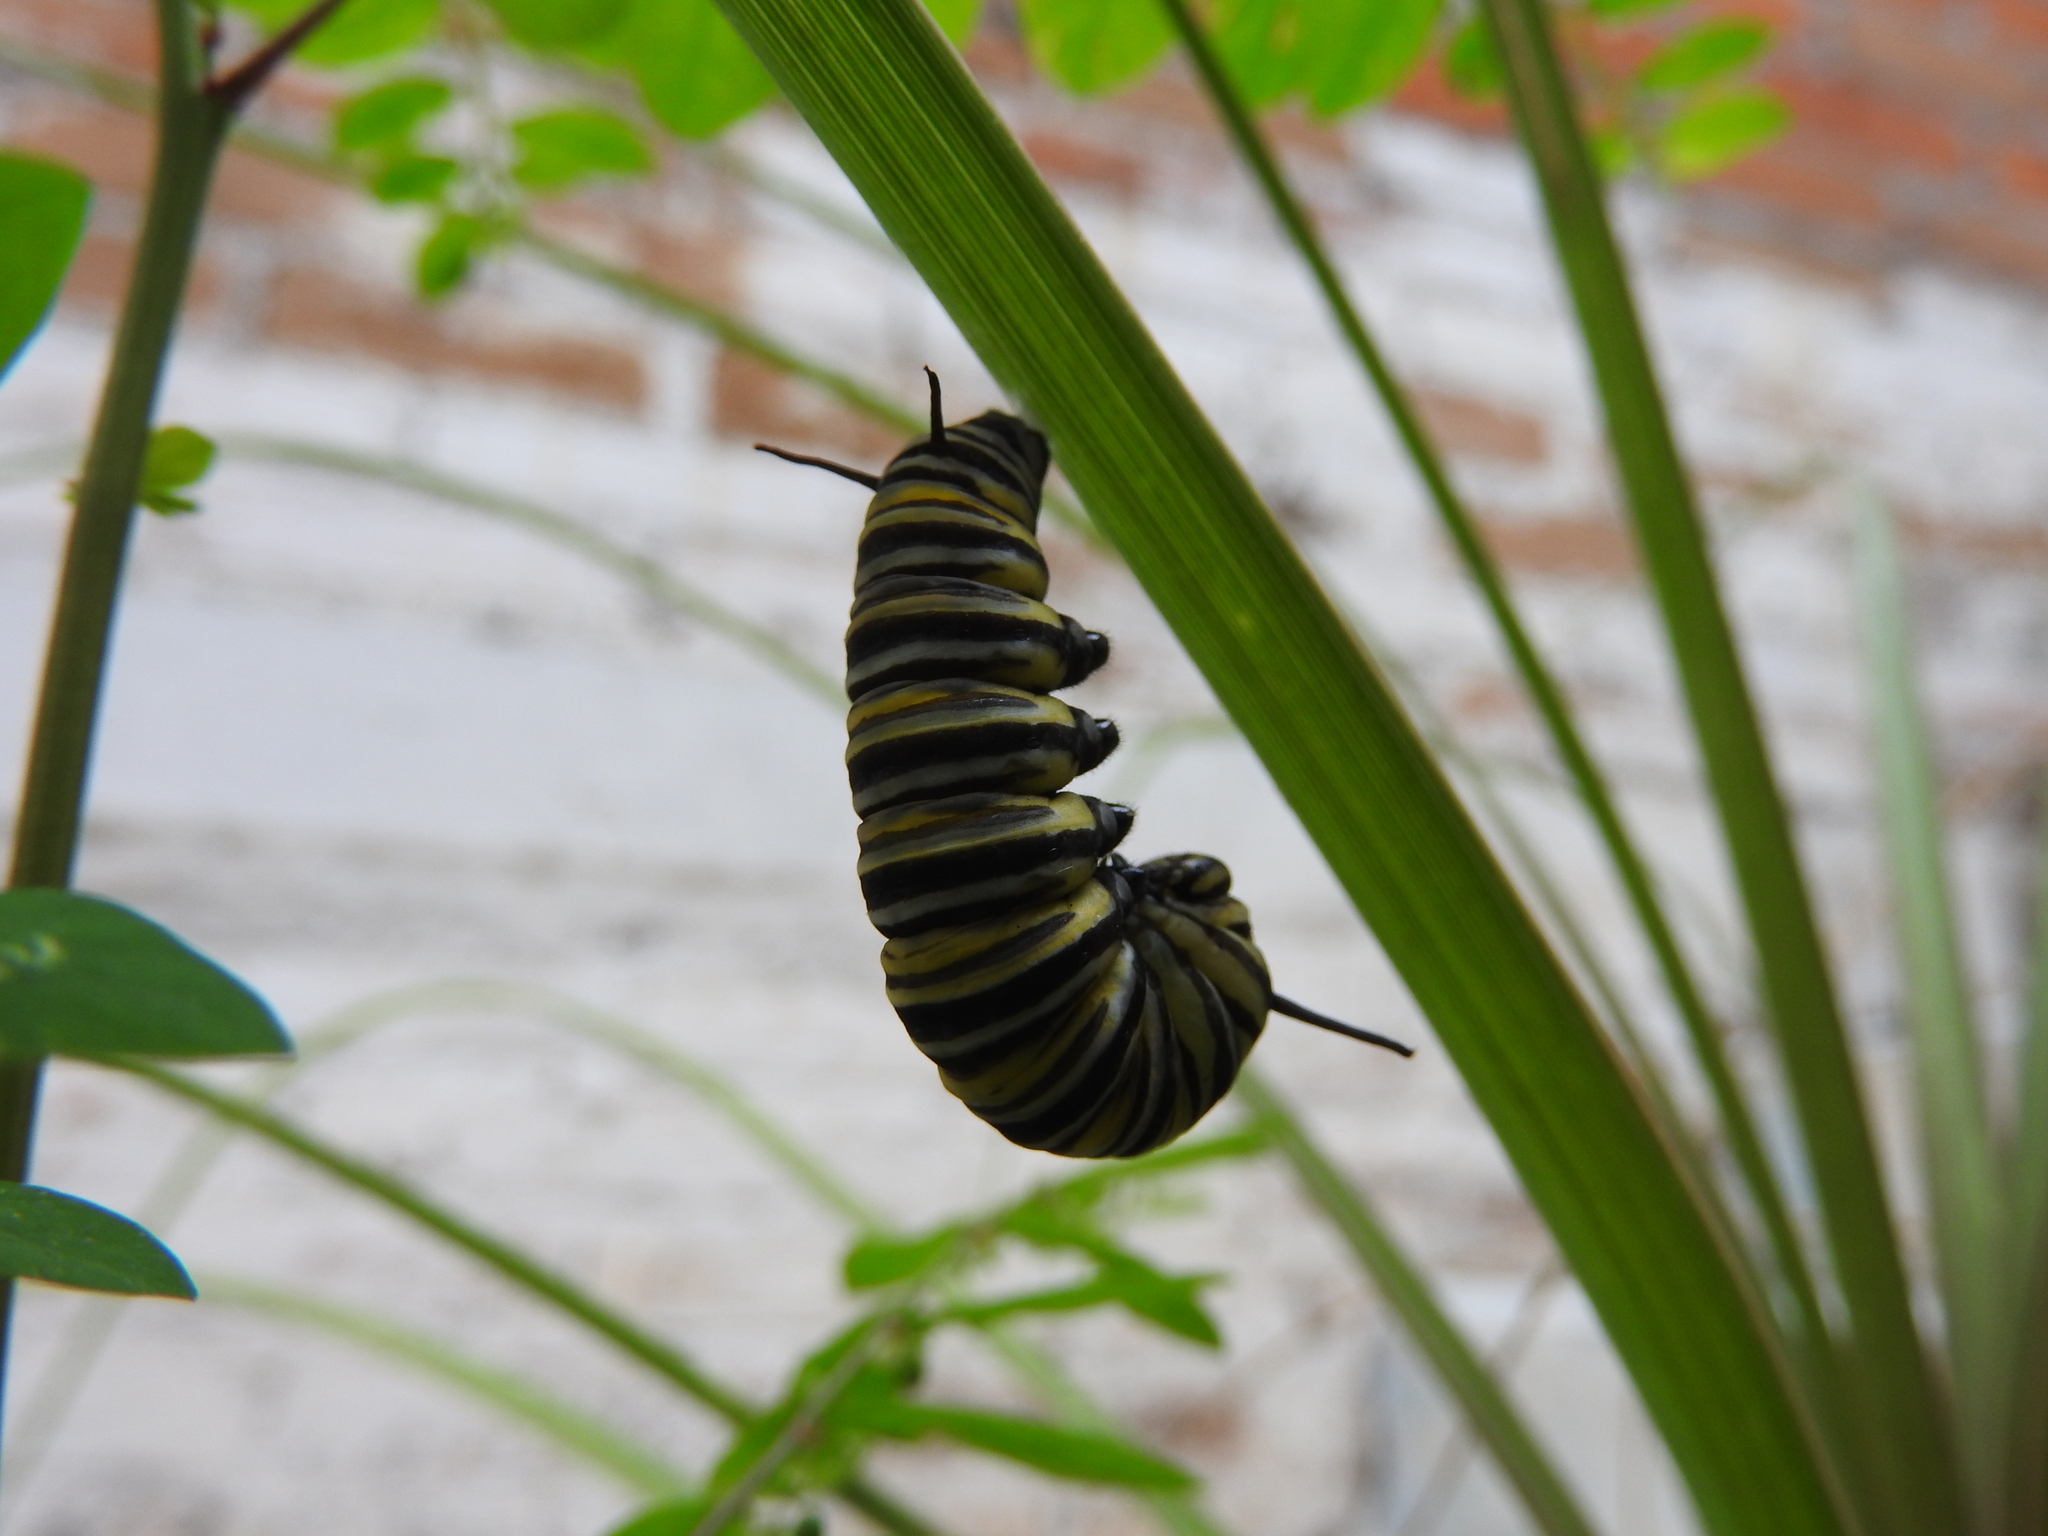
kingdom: Animalia
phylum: Arthropoda
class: Insecta
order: Lepidoptera
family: Nymphalidae
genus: Danaus
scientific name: Danaus plexippus
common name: Monarch
